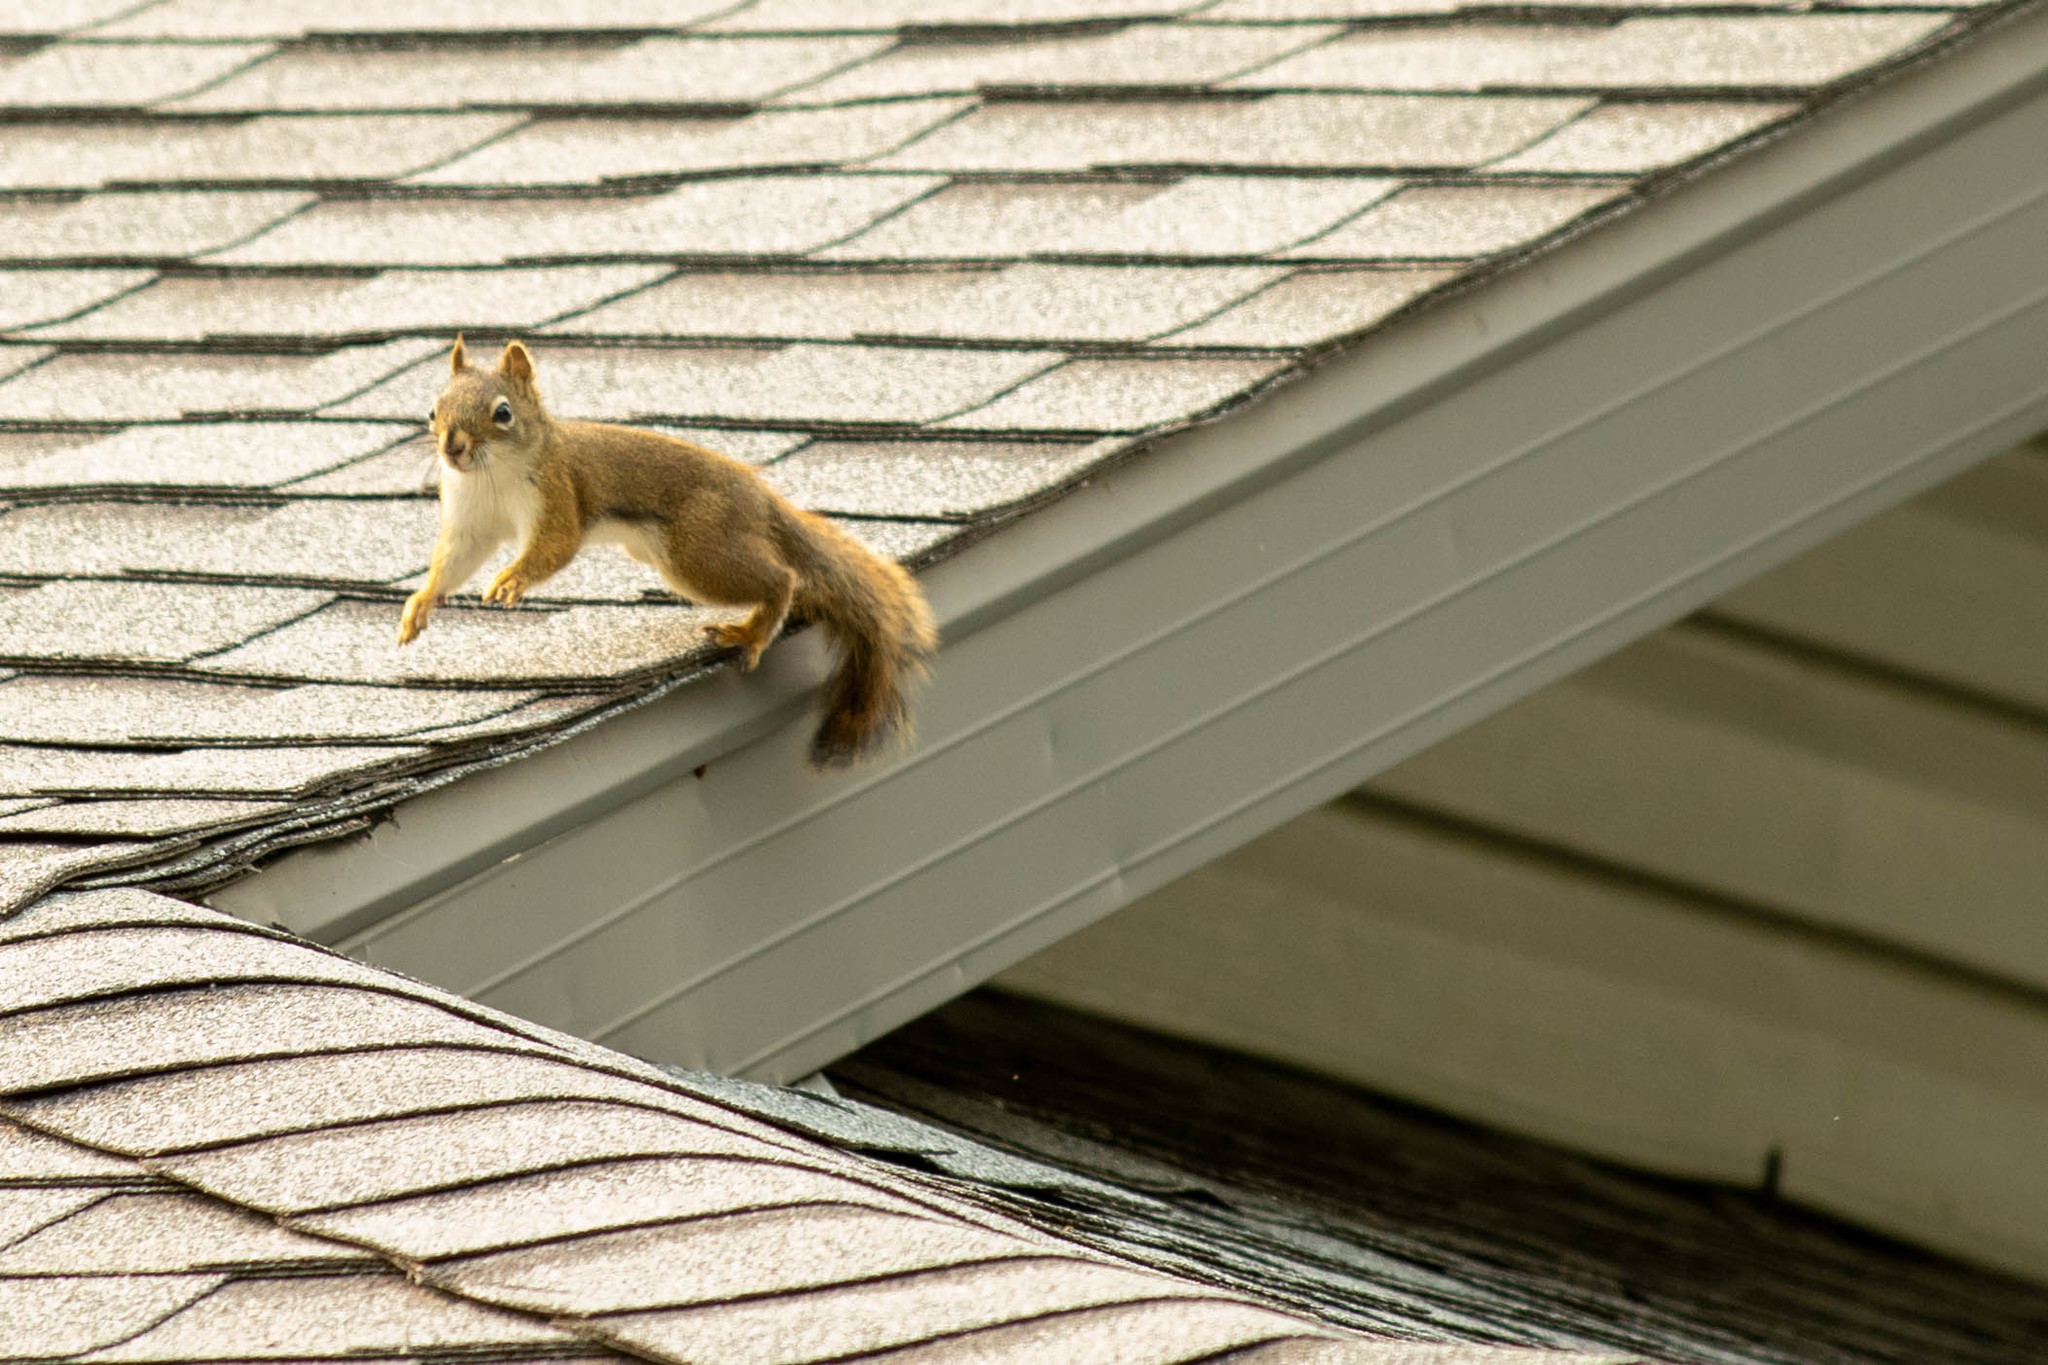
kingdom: Animalia
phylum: Chordata
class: Mammalia
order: Rodentia
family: Sciuridae
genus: Tamiasciurus
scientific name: Tamiasciurus hudsonicus
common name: Red squirrel
